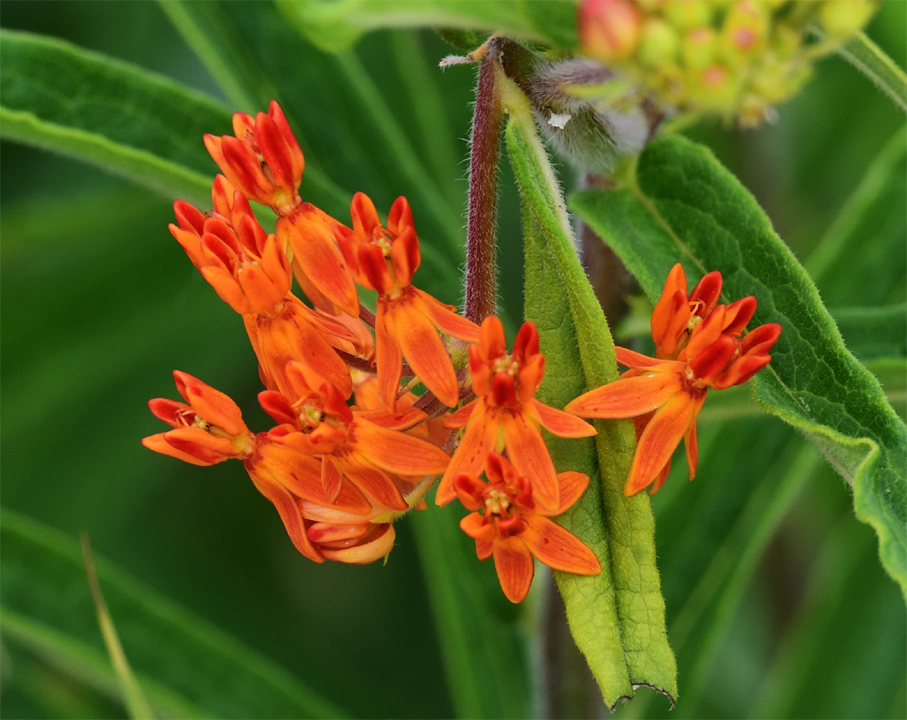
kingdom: Plantae
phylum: Tracheophyta
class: Magnoliopsida
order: Gentianales
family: Apocynaceae
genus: Asclepias
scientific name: Asclepias tuberosa
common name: Butterfly milkweed
